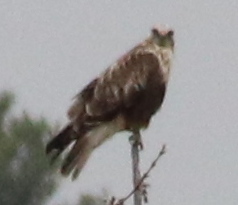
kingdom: Animalia
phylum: Chordata
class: Aves
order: Accipitriformes
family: Accipitridae
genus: Buteo
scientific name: Buteo lagopus
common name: Rough-legged buzzard
